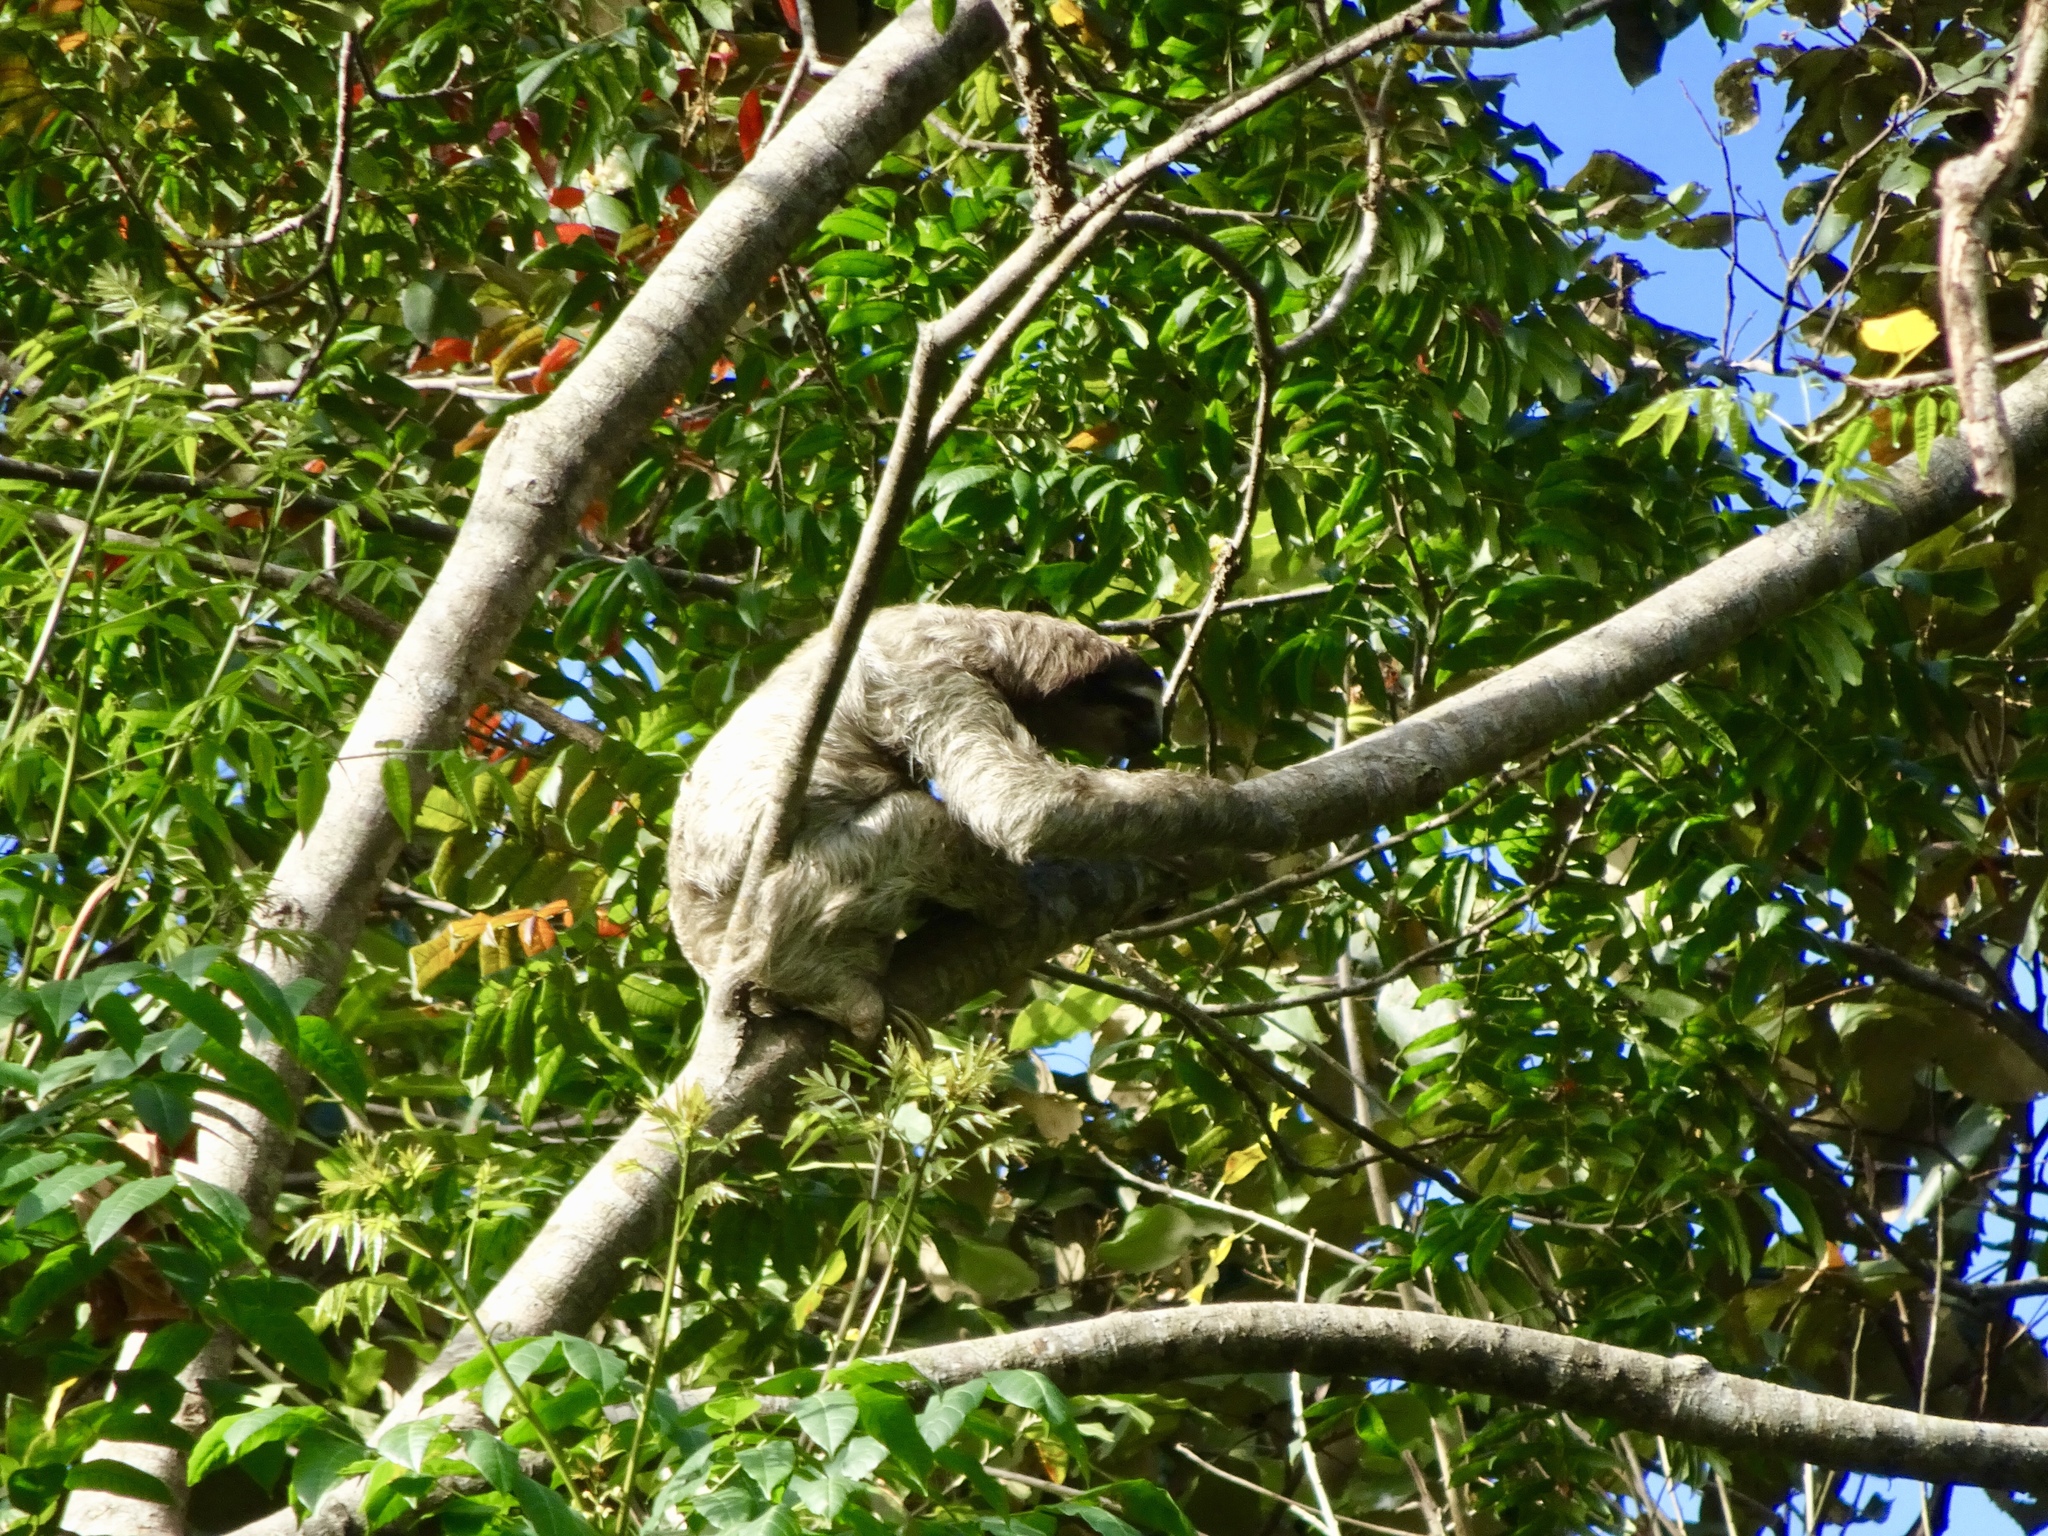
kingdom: Animalia
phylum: Chordata
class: Mammalia
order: Pilosa
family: Bradypodidae
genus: Bradypus
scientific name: Bradypus variegatus
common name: Brown-throated three-toed sloth
